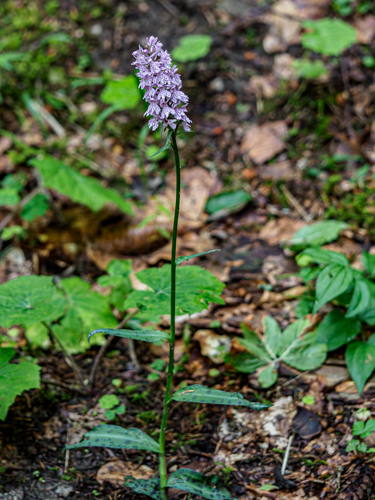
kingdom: Plantae
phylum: Tracheophyta
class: Liliopsida
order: Asparagales
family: Orchidaceae
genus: Dactylorhiza
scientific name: Dactylorhiza maculata
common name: Heath spotted-orchid
